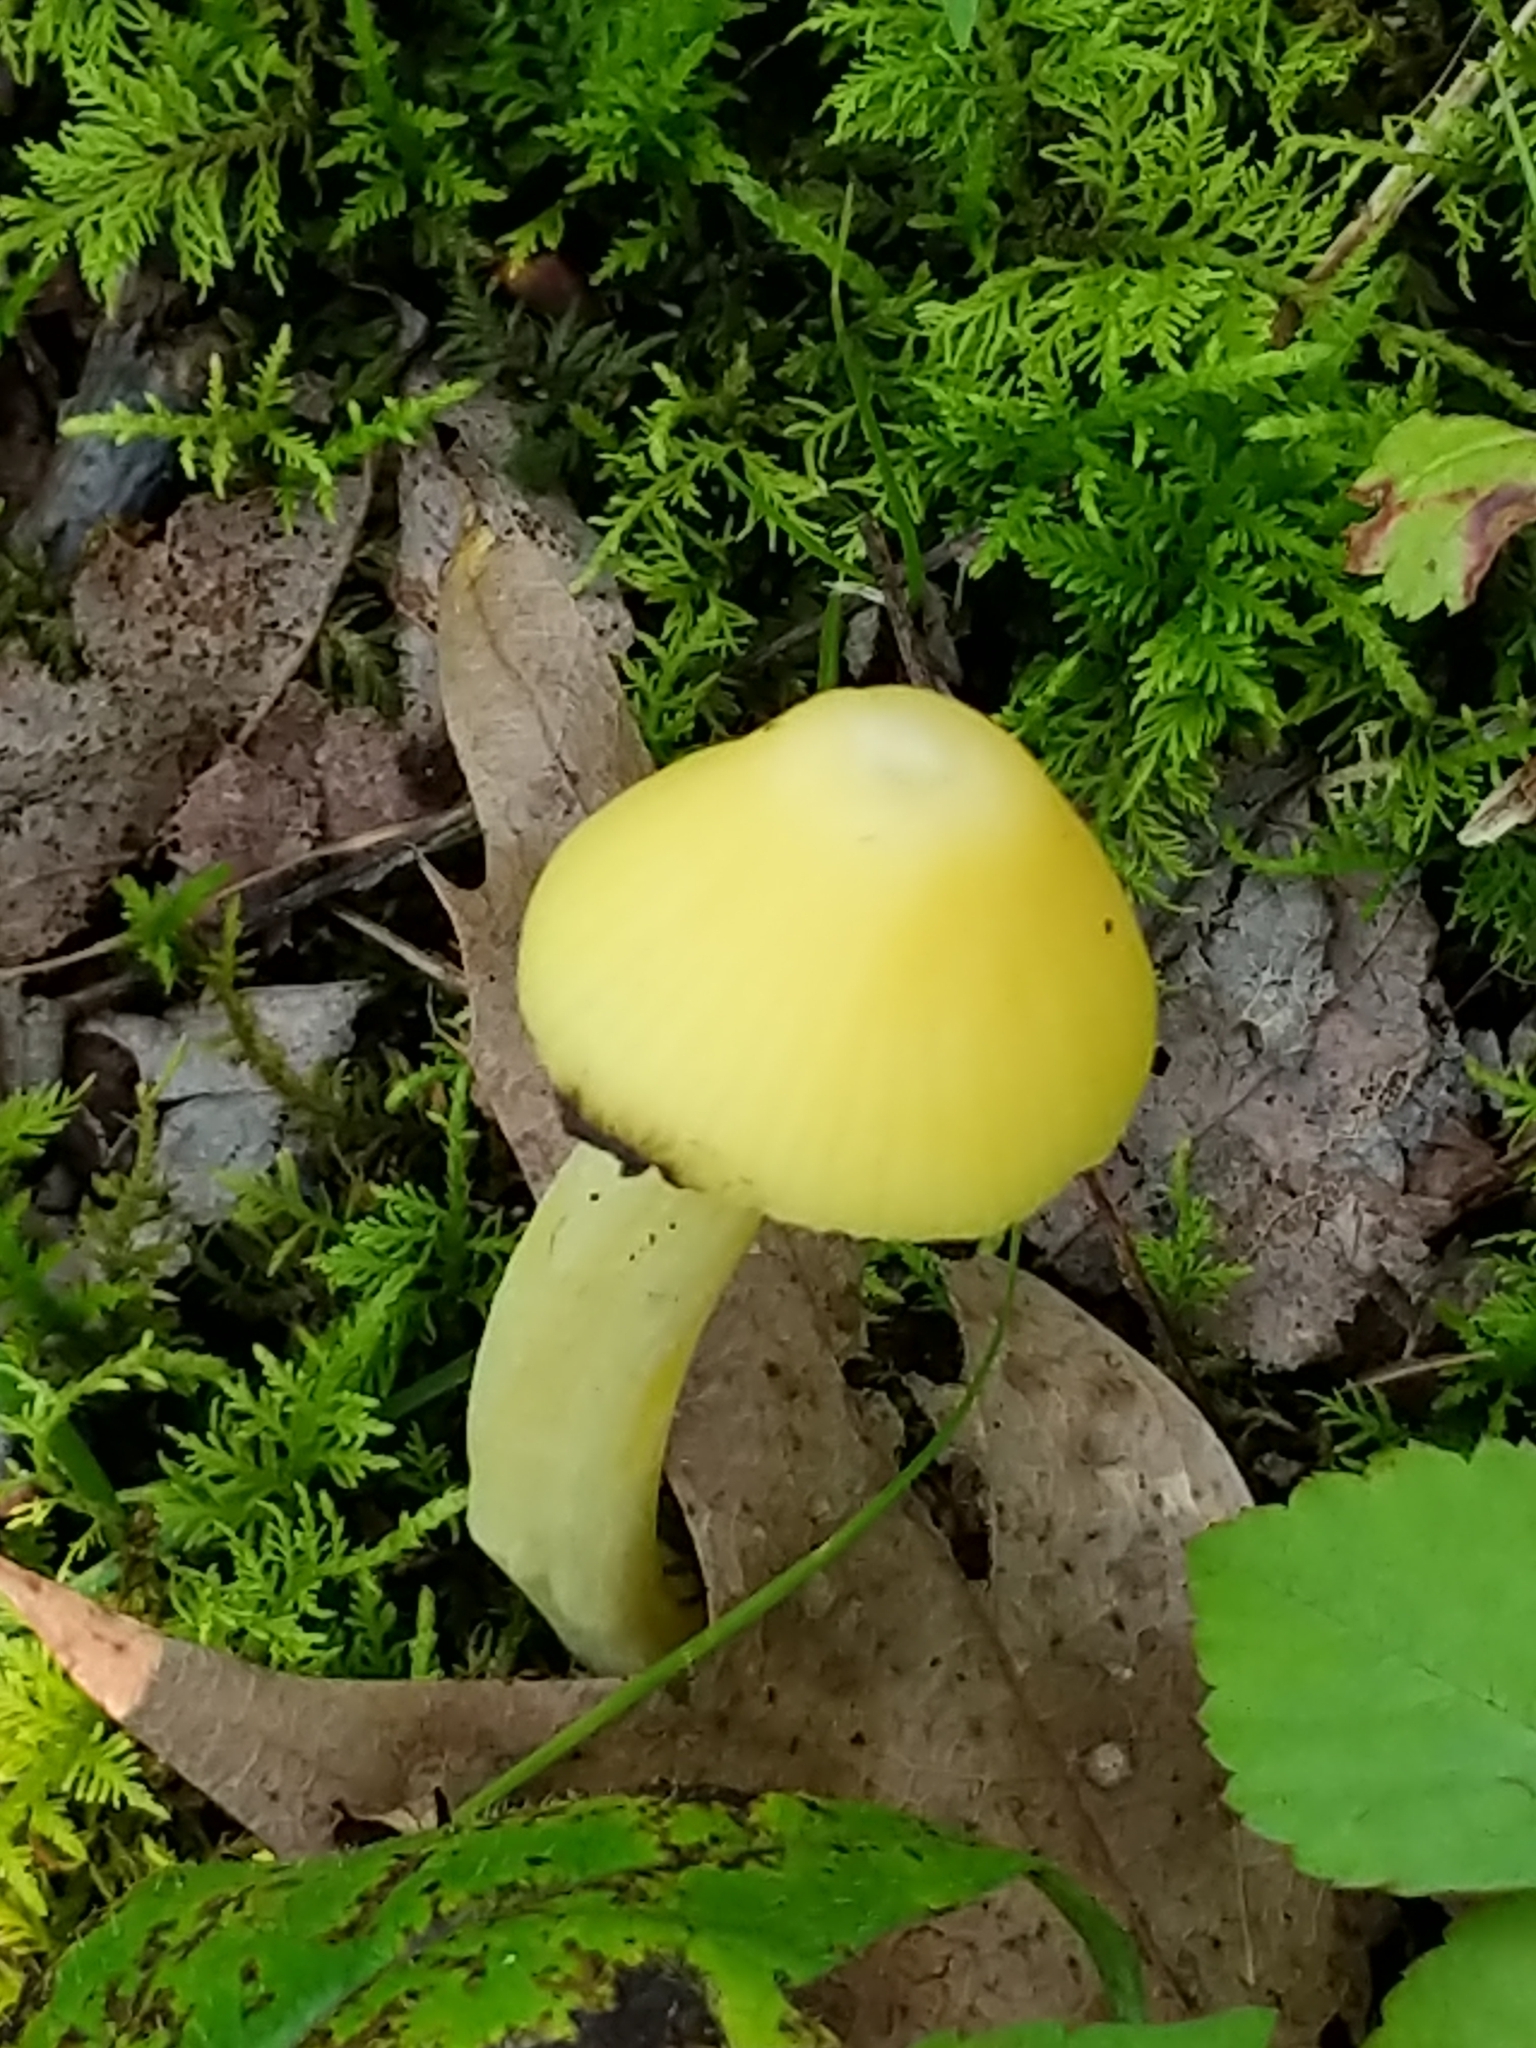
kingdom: Fungi
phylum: Basidiomycota
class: Agaricomycetes
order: Agaricales
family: Entolomataceae
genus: Entoloma
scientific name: Entoloma murrayi
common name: Yellow unicorn entoloma
